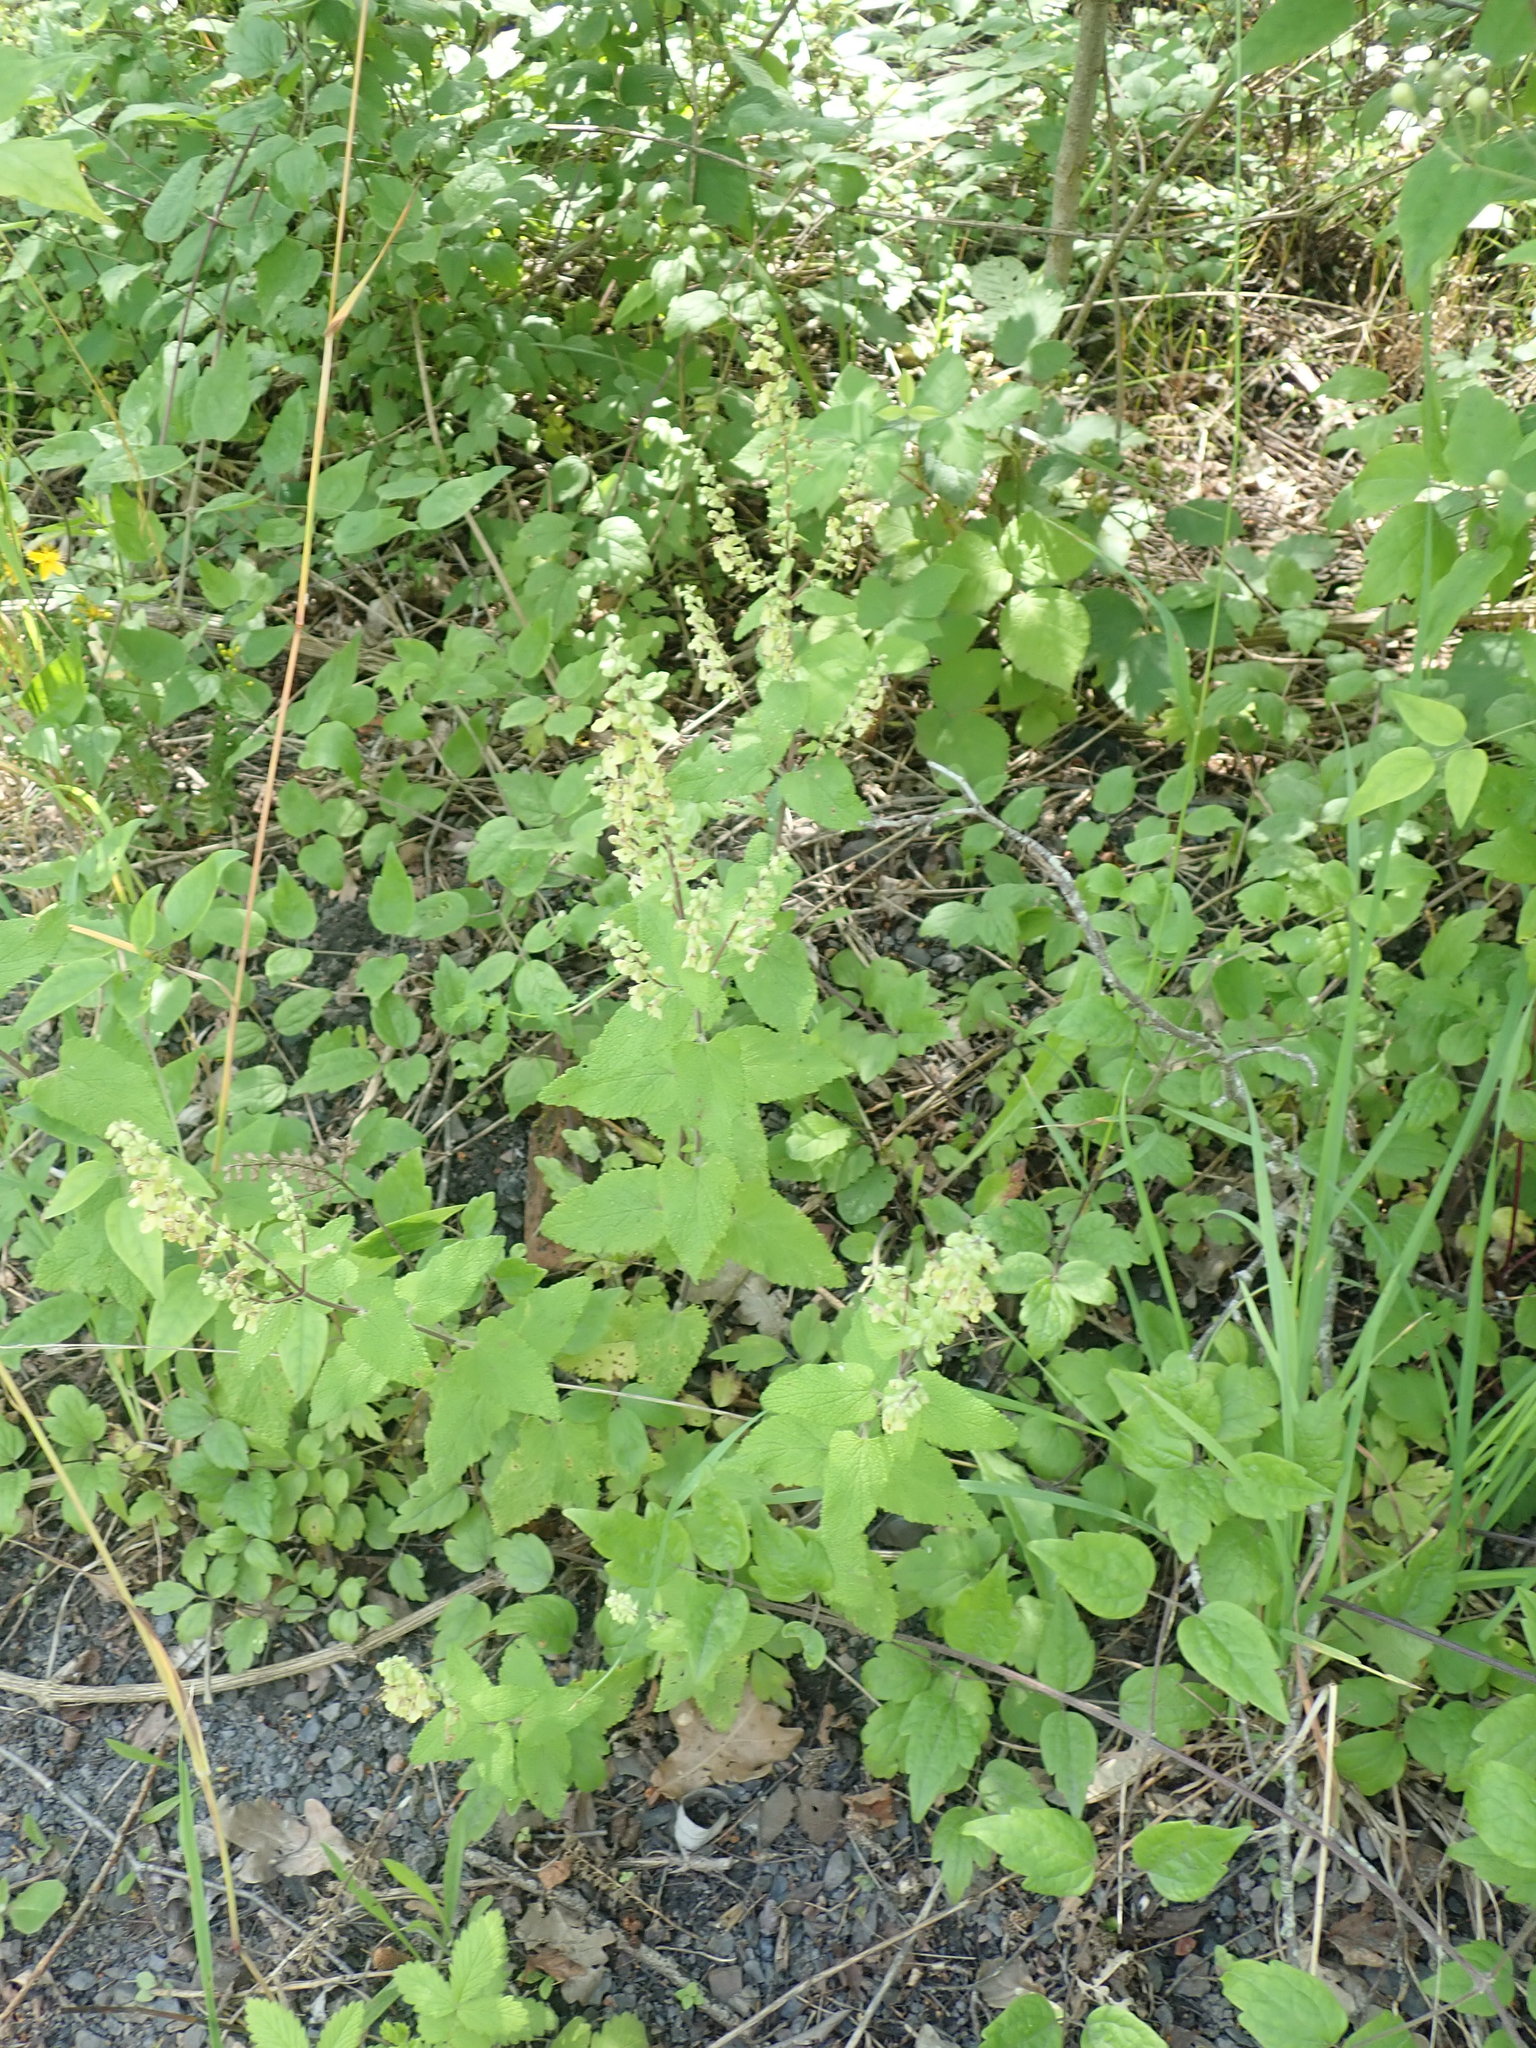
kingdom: Plantae
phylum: Tracheophyta
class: Magnoliopsida
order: Lamiales
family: Lamiaceae
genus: Teucrium
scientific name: Teucrium scorodonia
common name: Woodland germander
